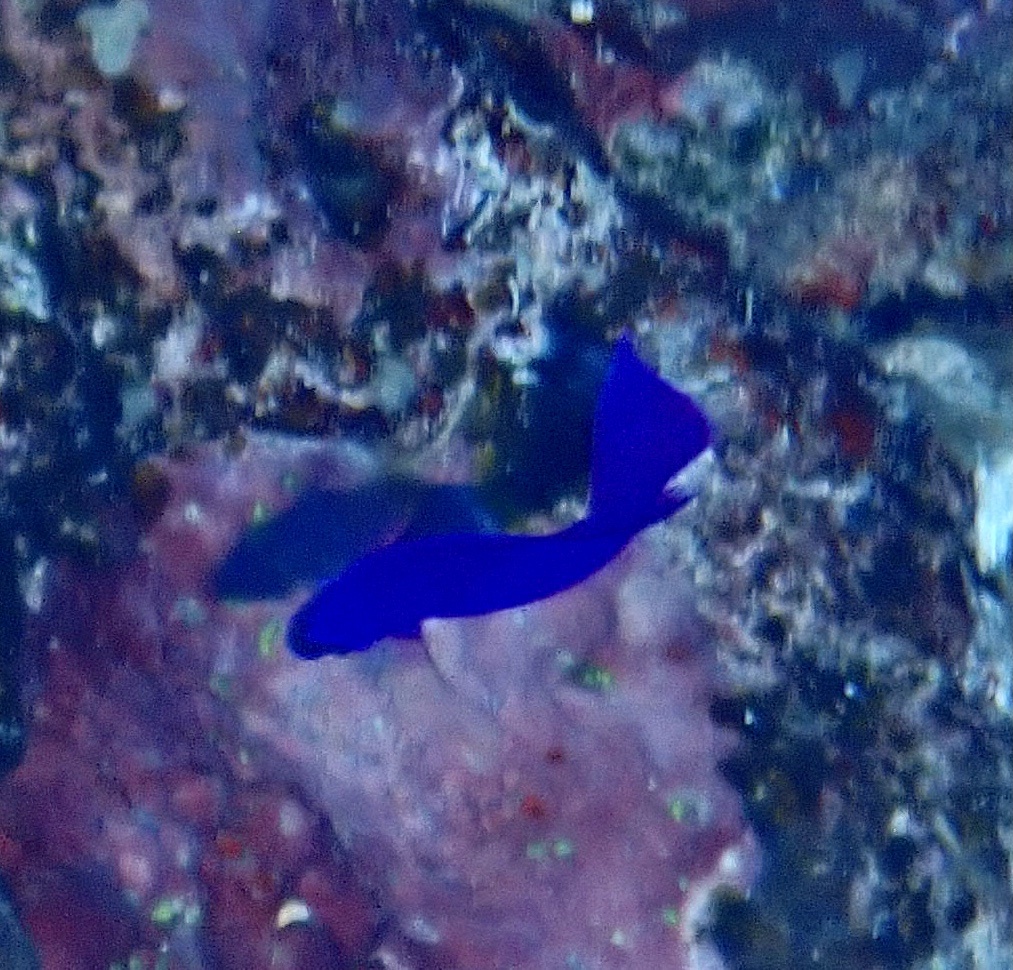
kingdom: Animalia
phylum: Chordata
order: Perciformes
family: Pseudochromidae
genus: Pseudochromis
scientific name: Pseudochromis fridmani
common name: Orchid dottyback
